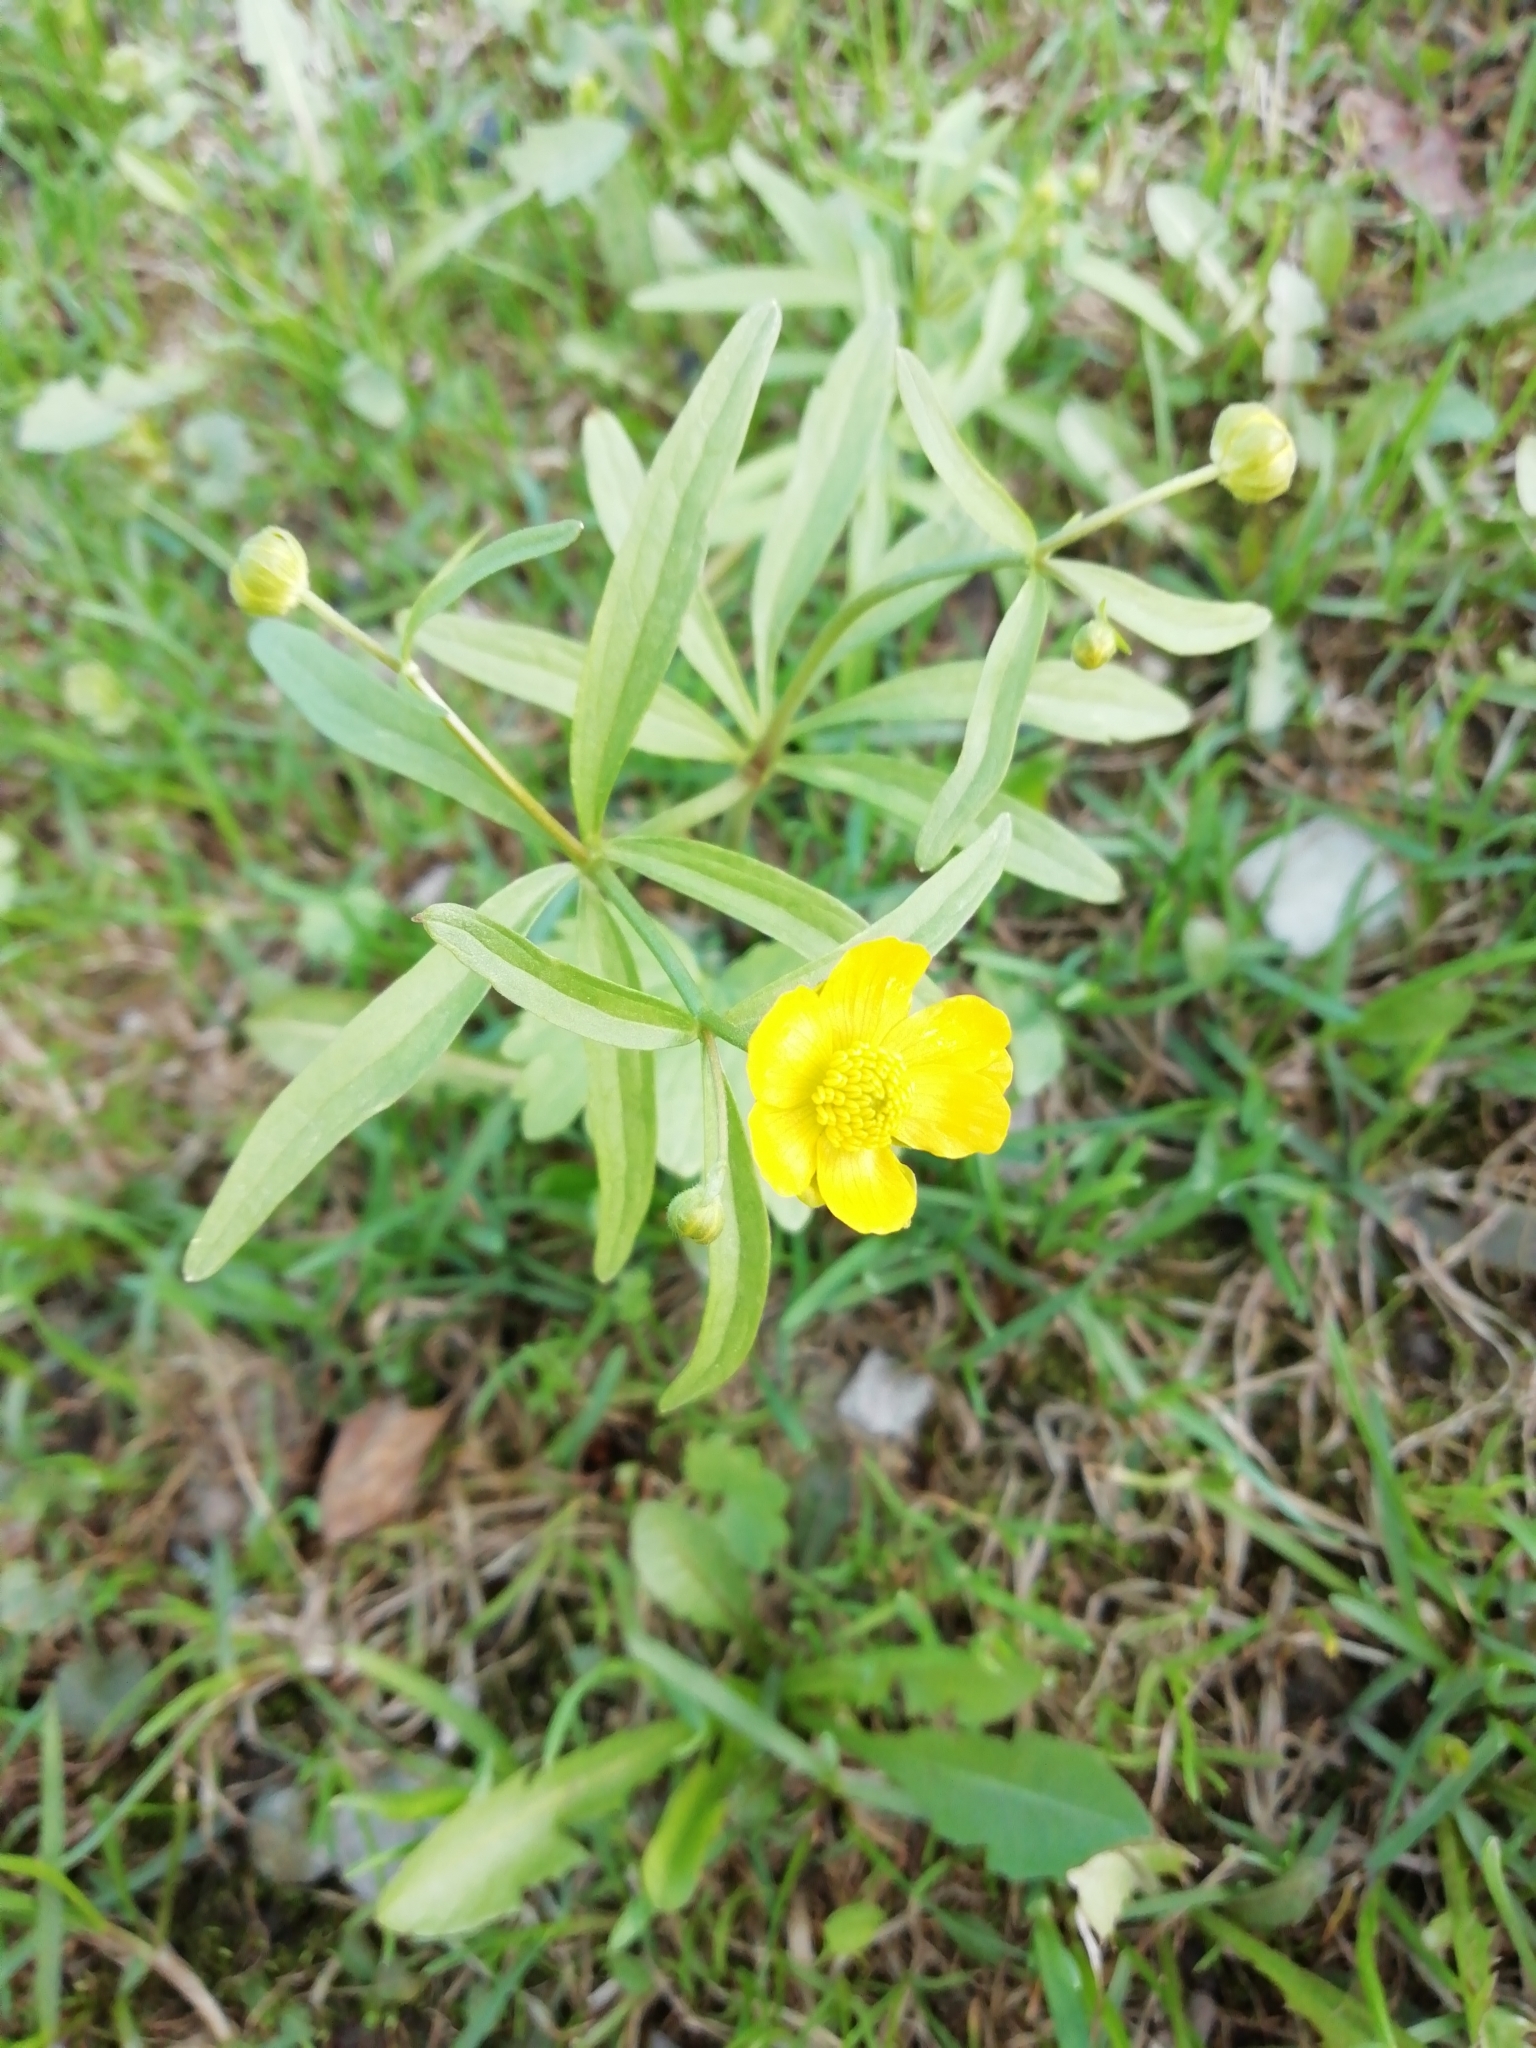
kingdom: Plantae
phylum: Tracheophyta
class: Magnoliopsida
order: Ranunculales
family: Ranunculaceae
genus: Ranunculus
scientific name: Ranunculus monophyllus
